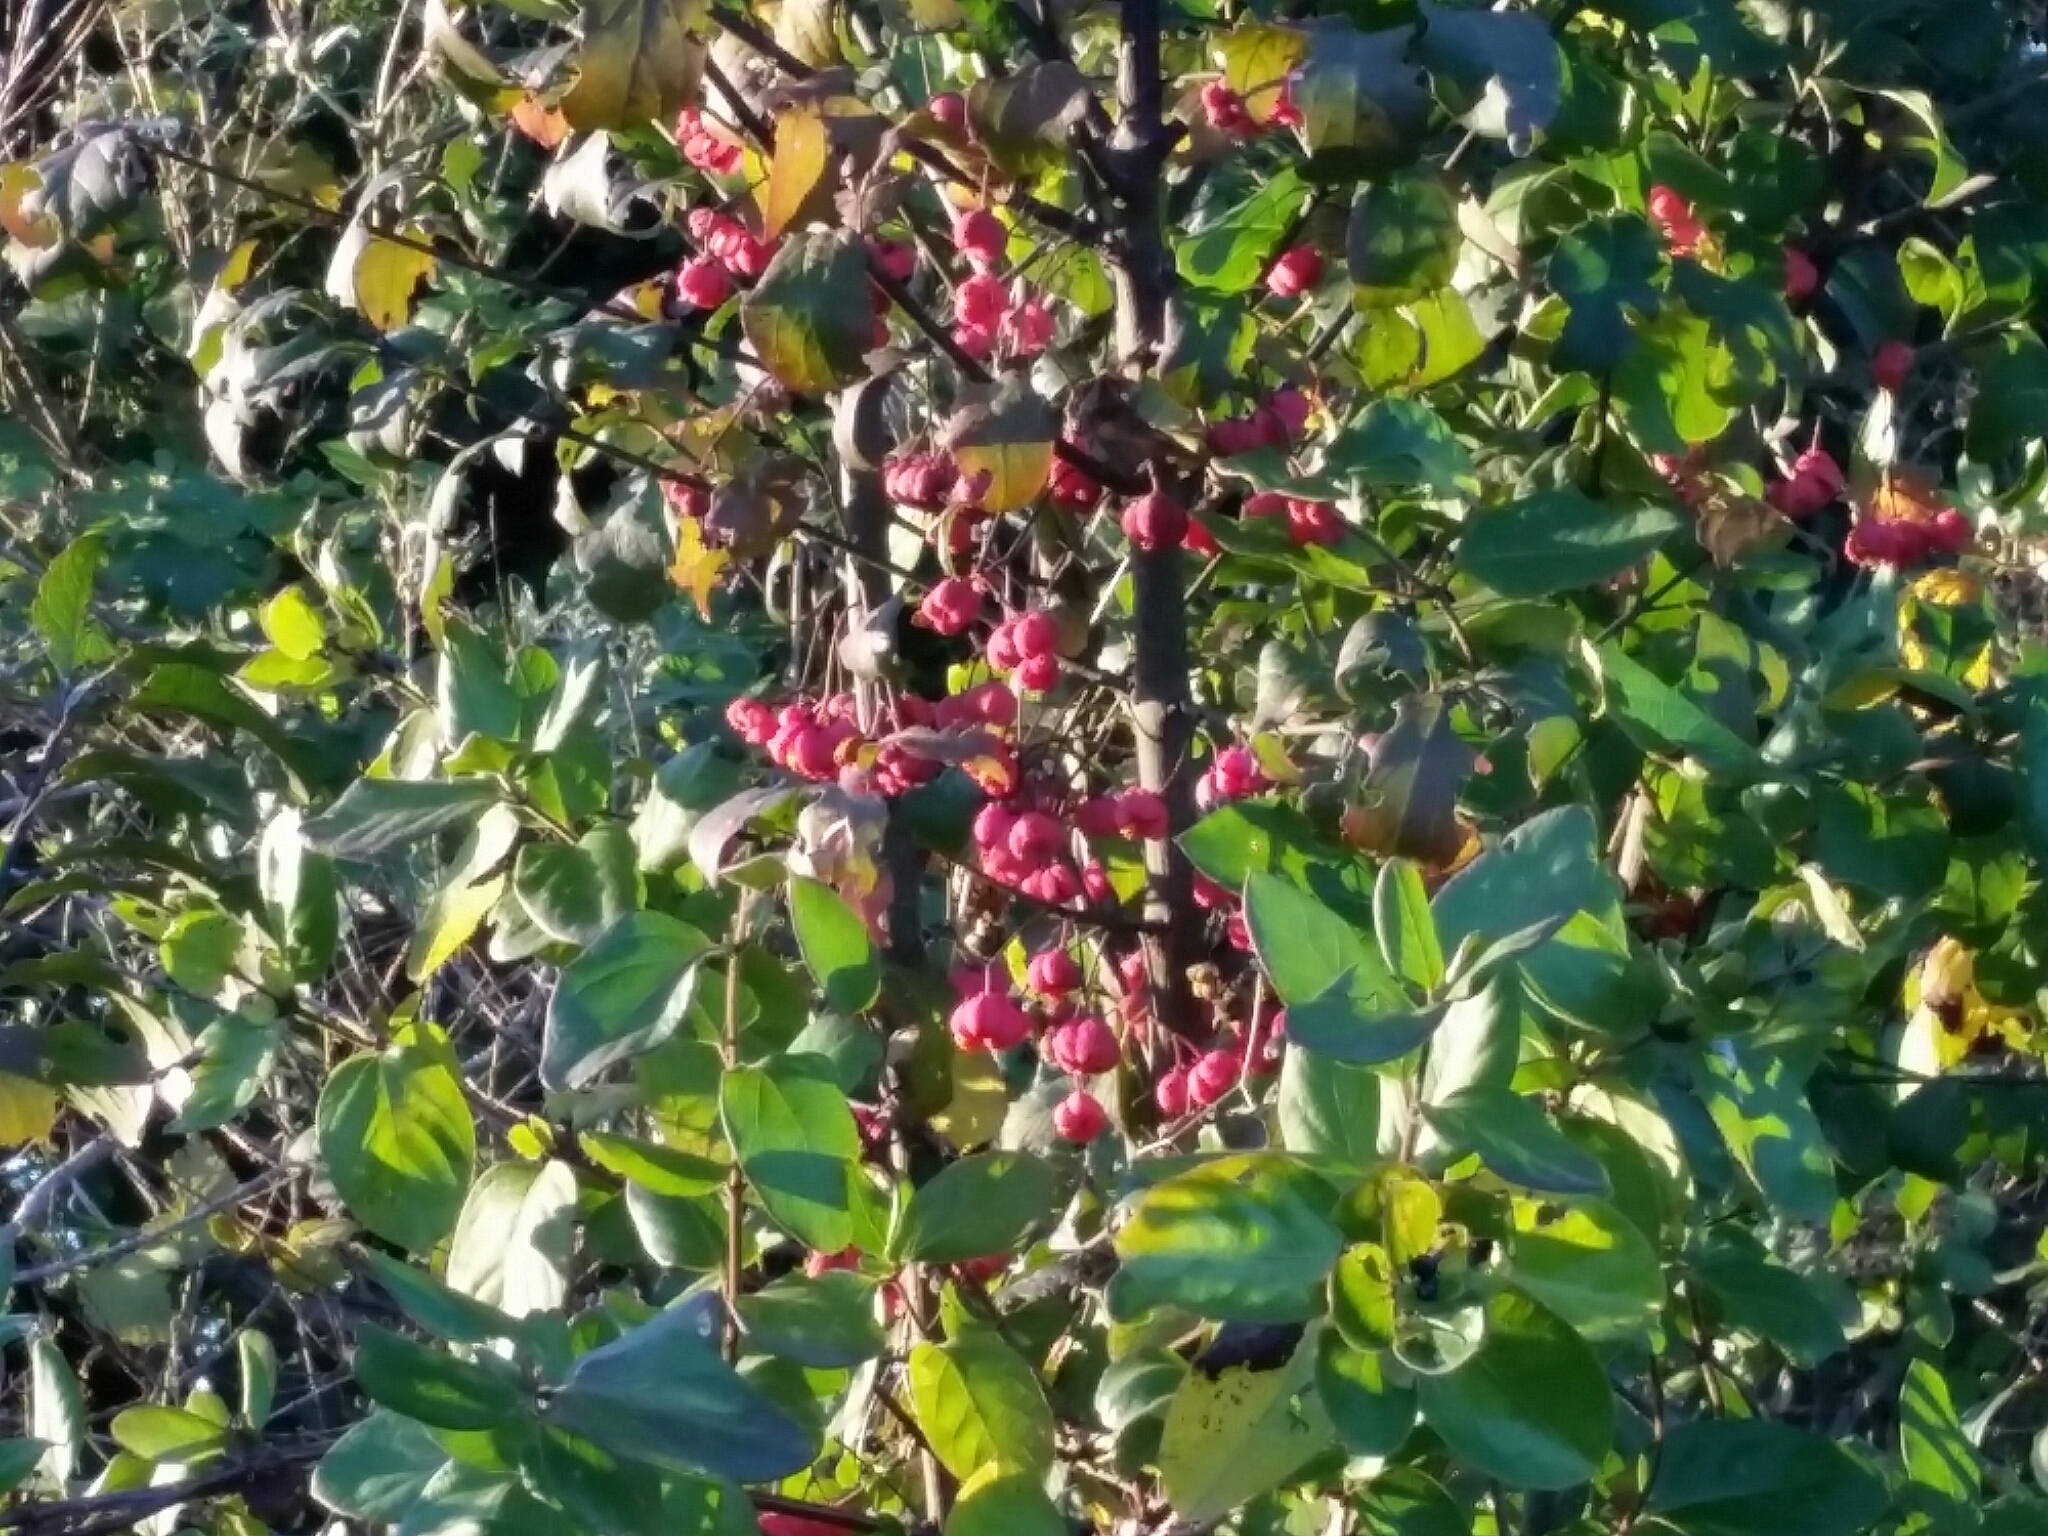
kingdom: Plantae
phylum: Tracheophyta
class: Magnoliopsida
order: Celastrales
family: Celastraceae
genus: Euonymus
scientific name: Euonymus europaeus
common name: Spindle
